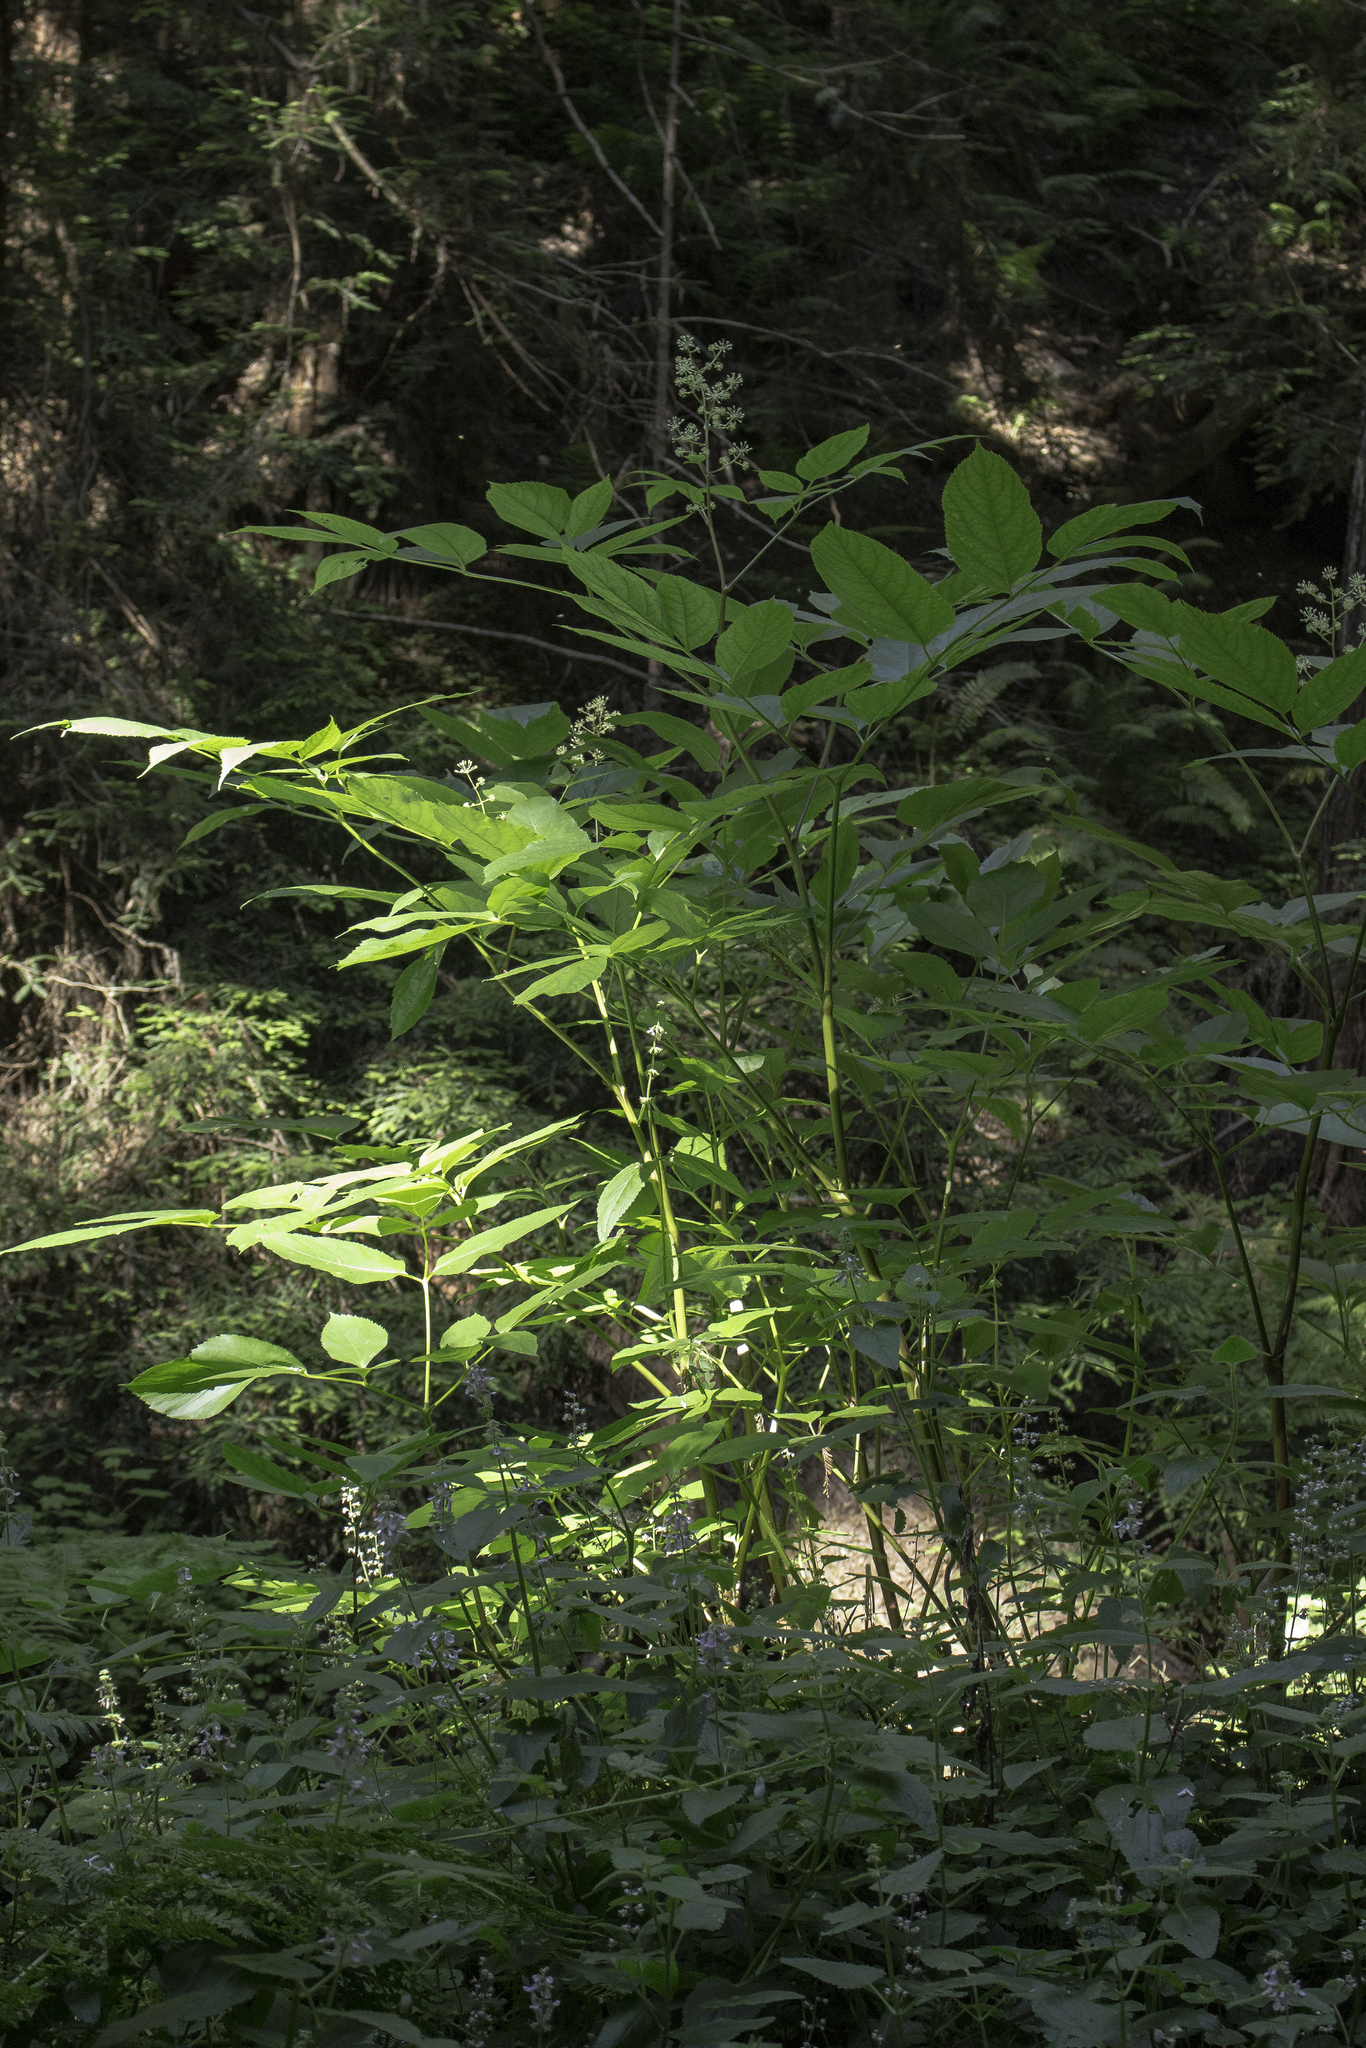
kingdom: Plantae
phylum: Tracheophyta
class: Magnoliopsida
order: Apiales
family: Araliaceae
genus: Aralia
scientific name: Aralia californica
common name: California-ginseng
